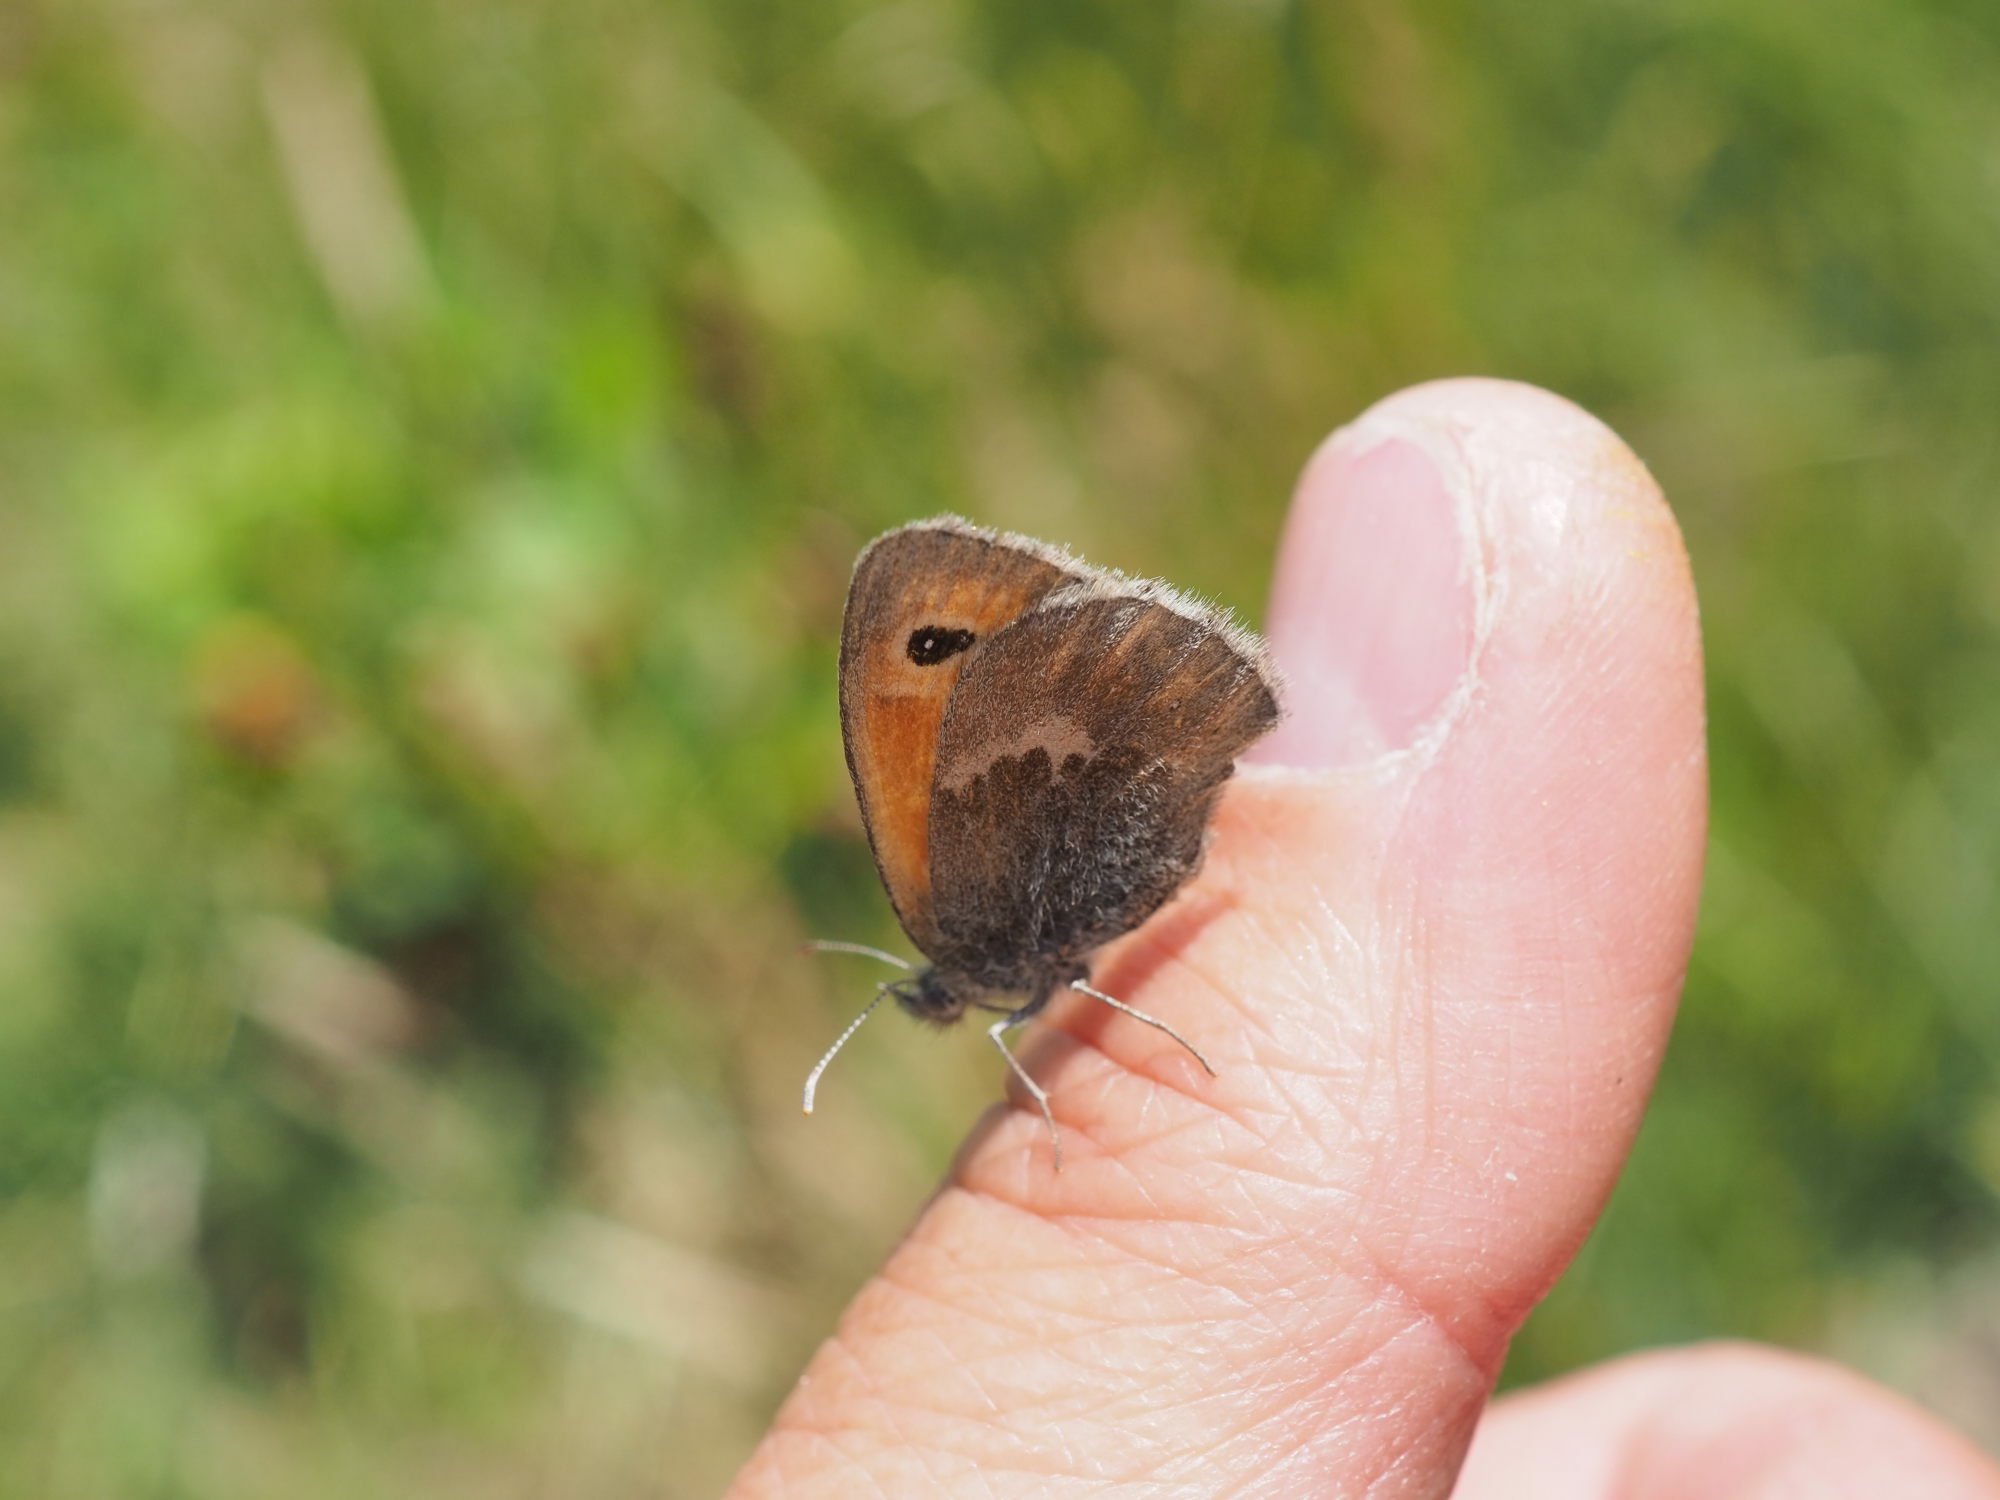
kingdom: Animalia
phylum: Arthropoda
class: Insecta
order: Lepidoptera
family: Nymphalidae
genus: Coenonympha
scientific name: Coenonympha pamphilus
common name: Small heath
